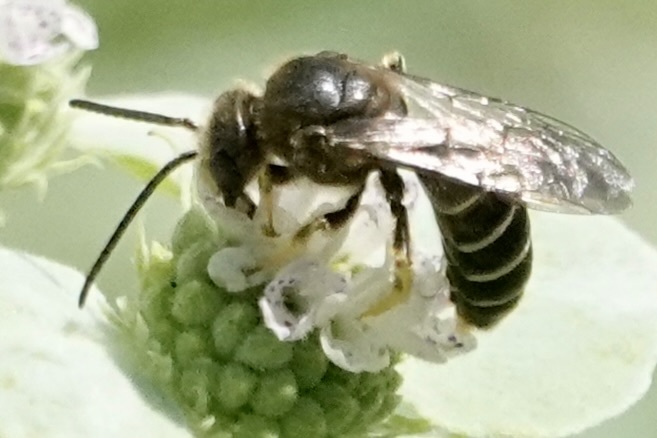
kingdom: Animalia
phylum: Arthropoda
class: Insecta
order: Hymenoptera
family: Halictidae
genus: Halictus
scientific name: Halictus rubicundus
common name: Orange-legged furrow bee
